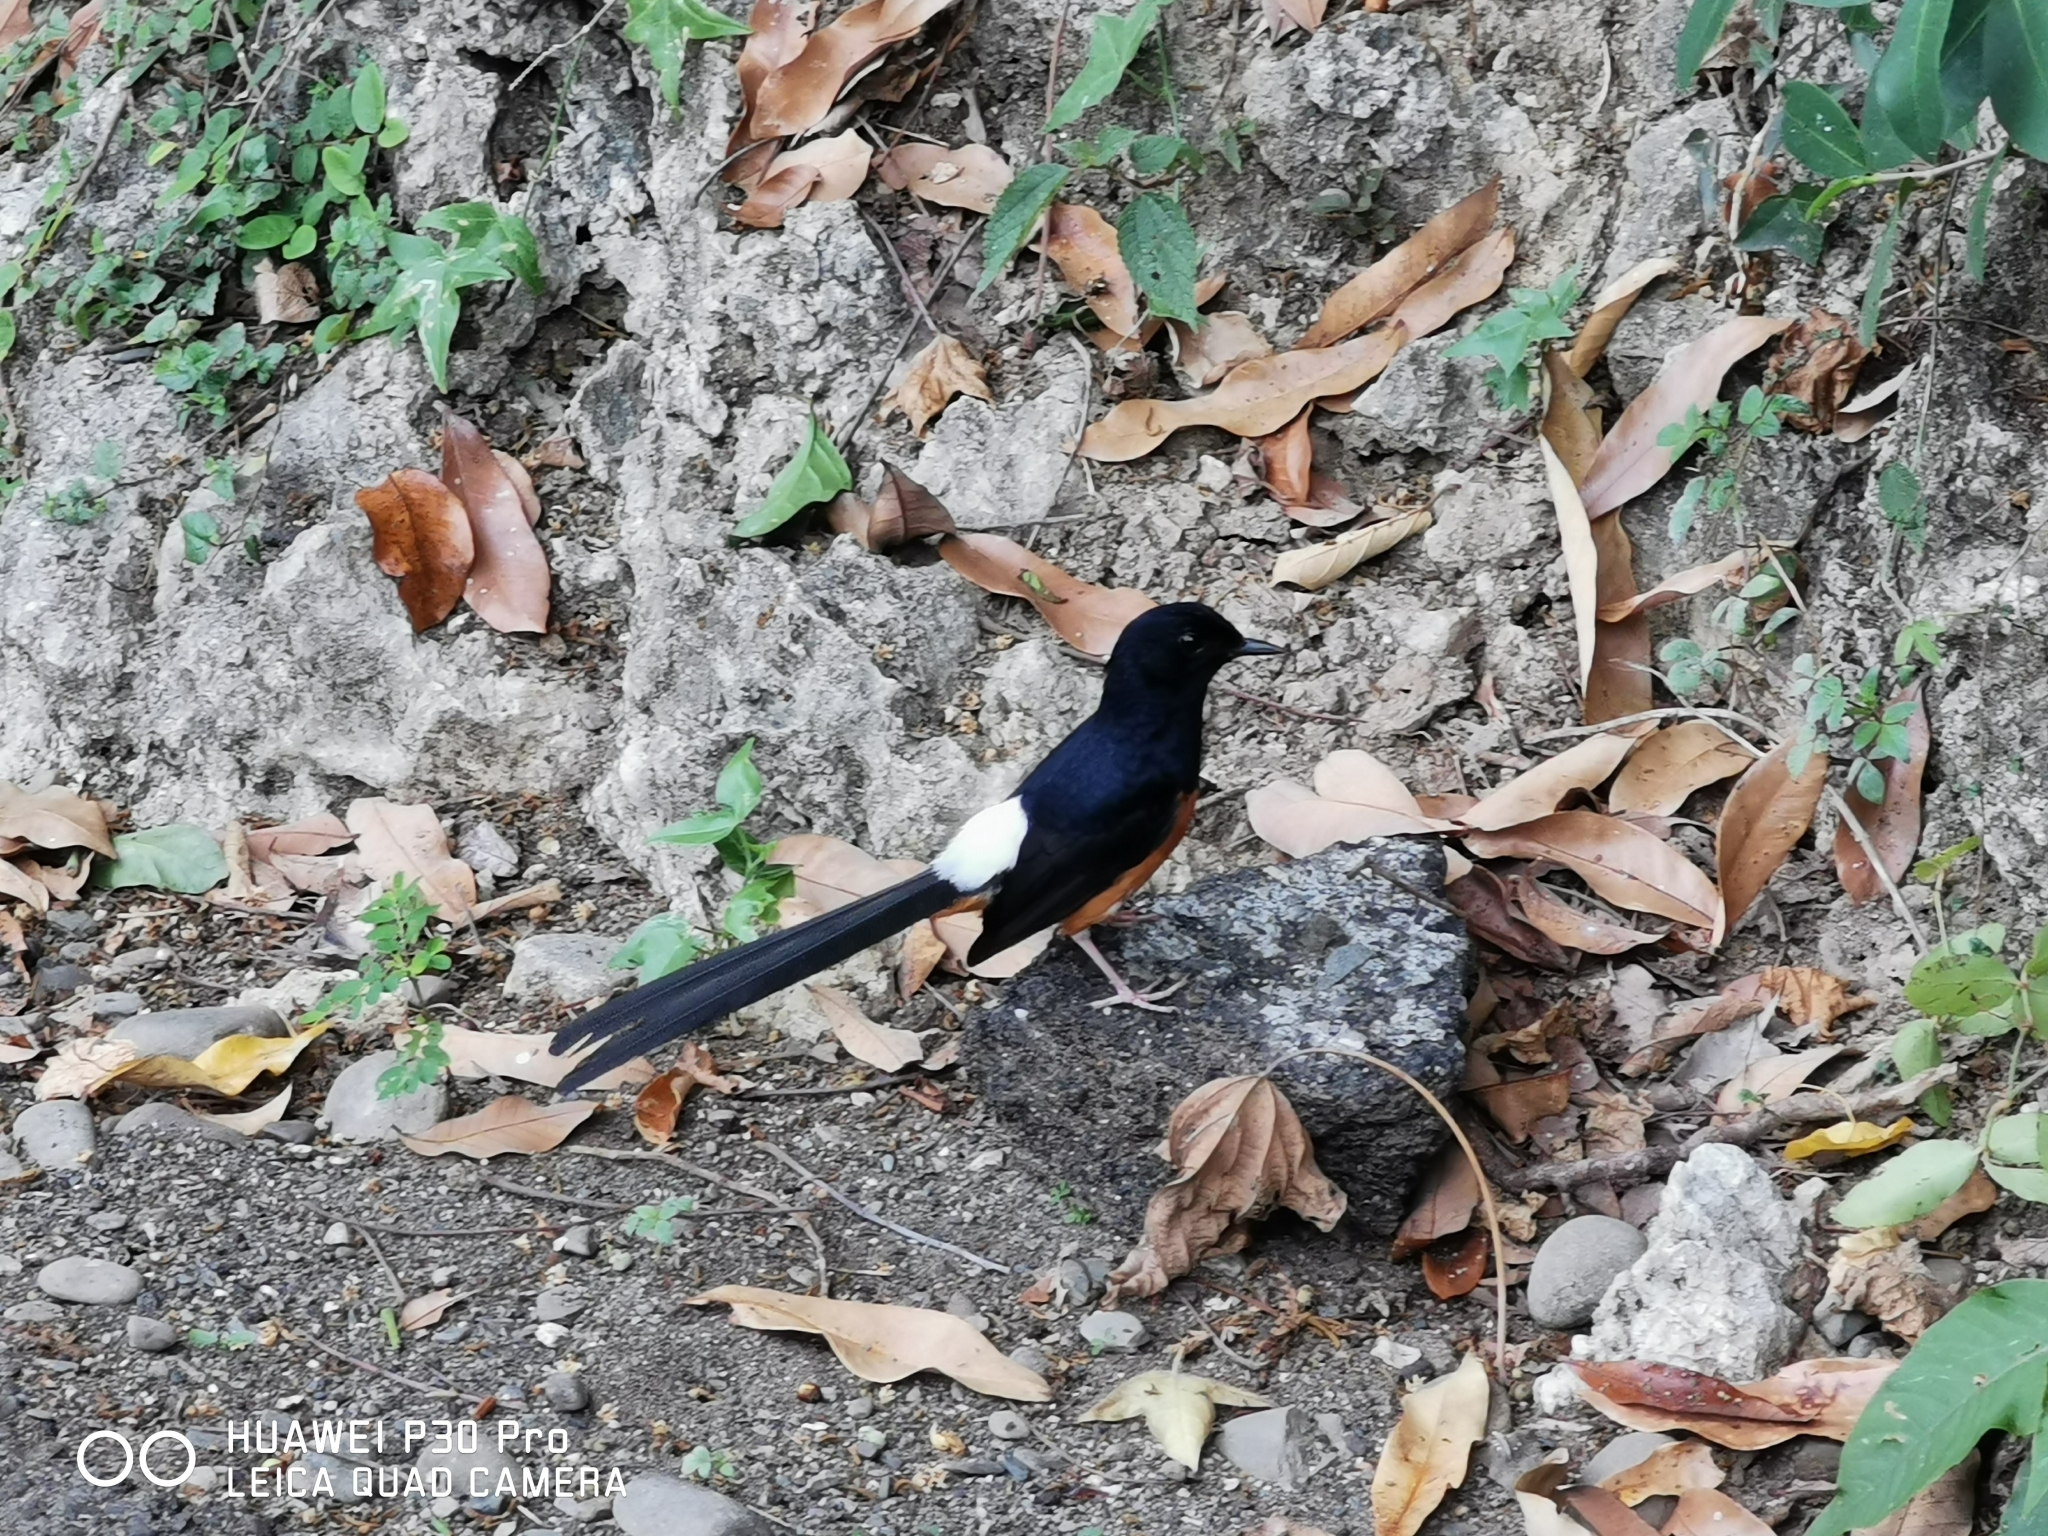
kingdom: Animalia
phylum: Chordata
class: Aves
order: Passeriformes
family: Muscicapidae
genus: Copsychus
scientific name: Copsychus malabaricus
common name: White-rumped shama
